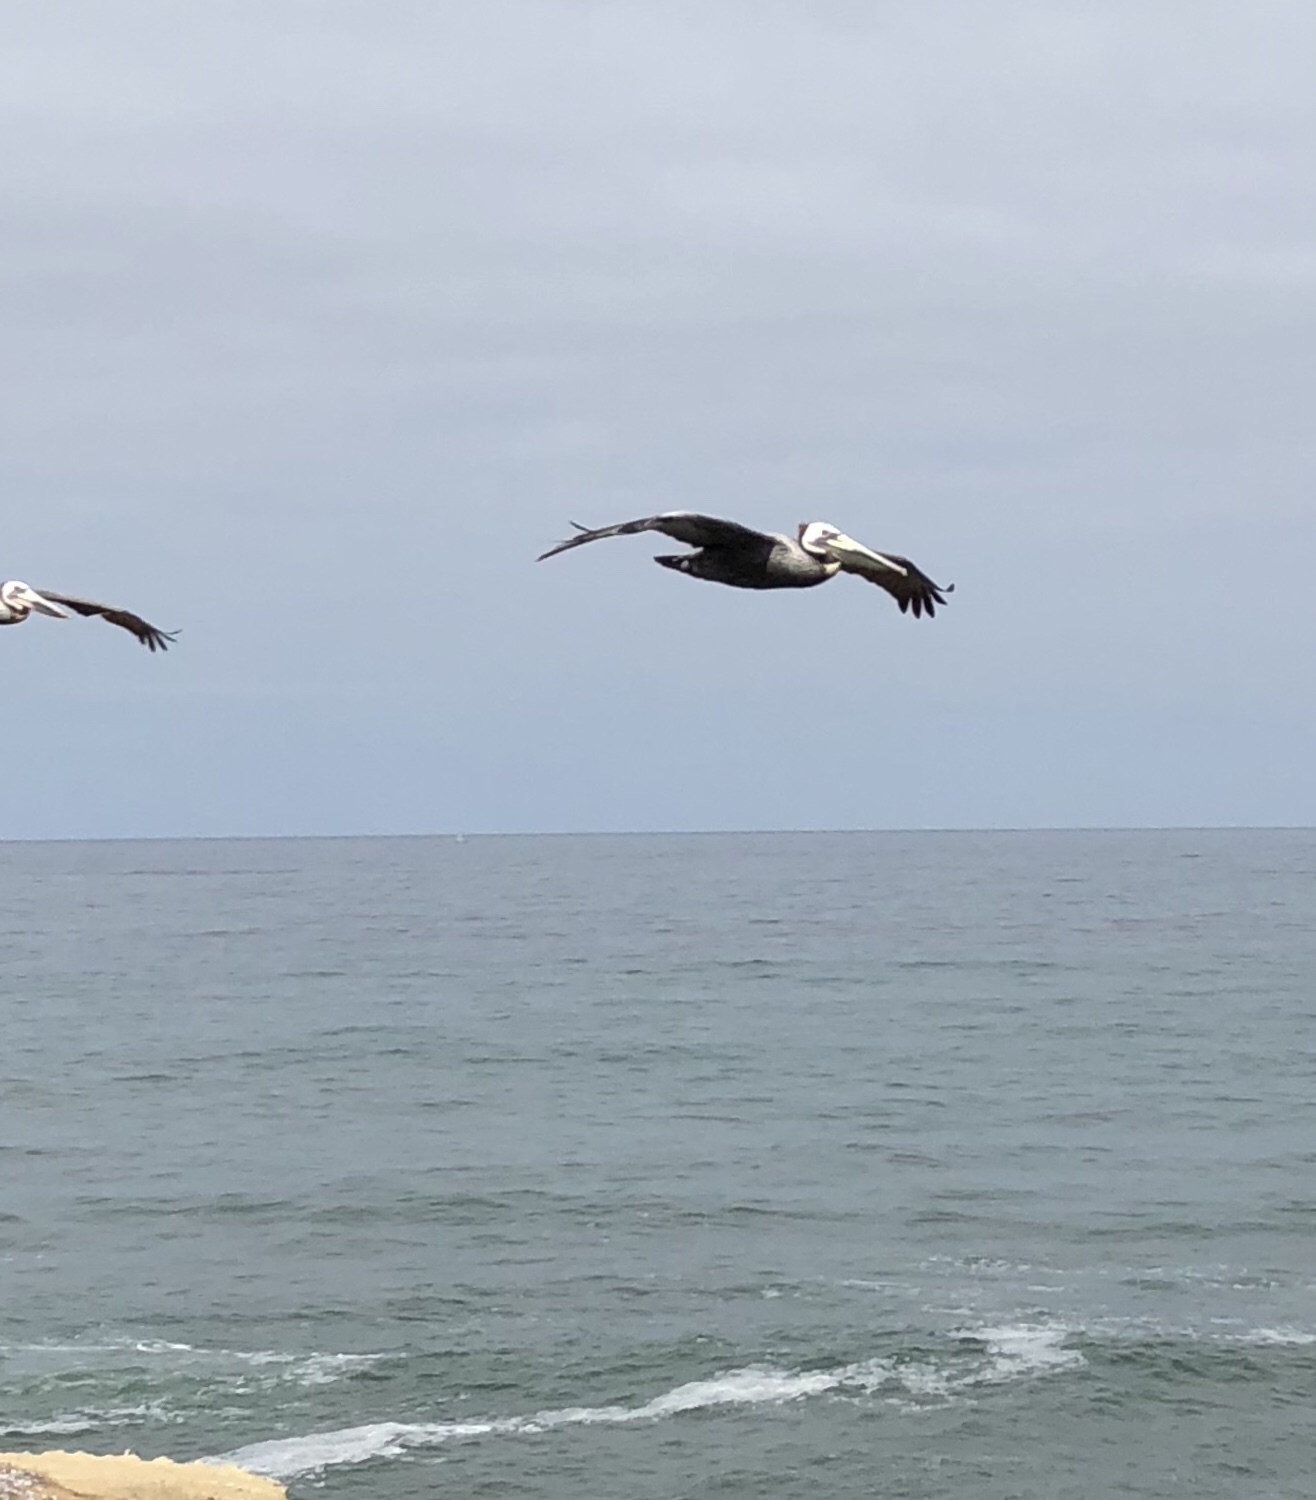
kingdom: Animalia
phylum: Chordata
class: Aves
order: Pelecaniformes
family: Pelecanidae
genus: Pelecanus
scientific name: Pelecanus occidentalis
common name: Brown pelican
